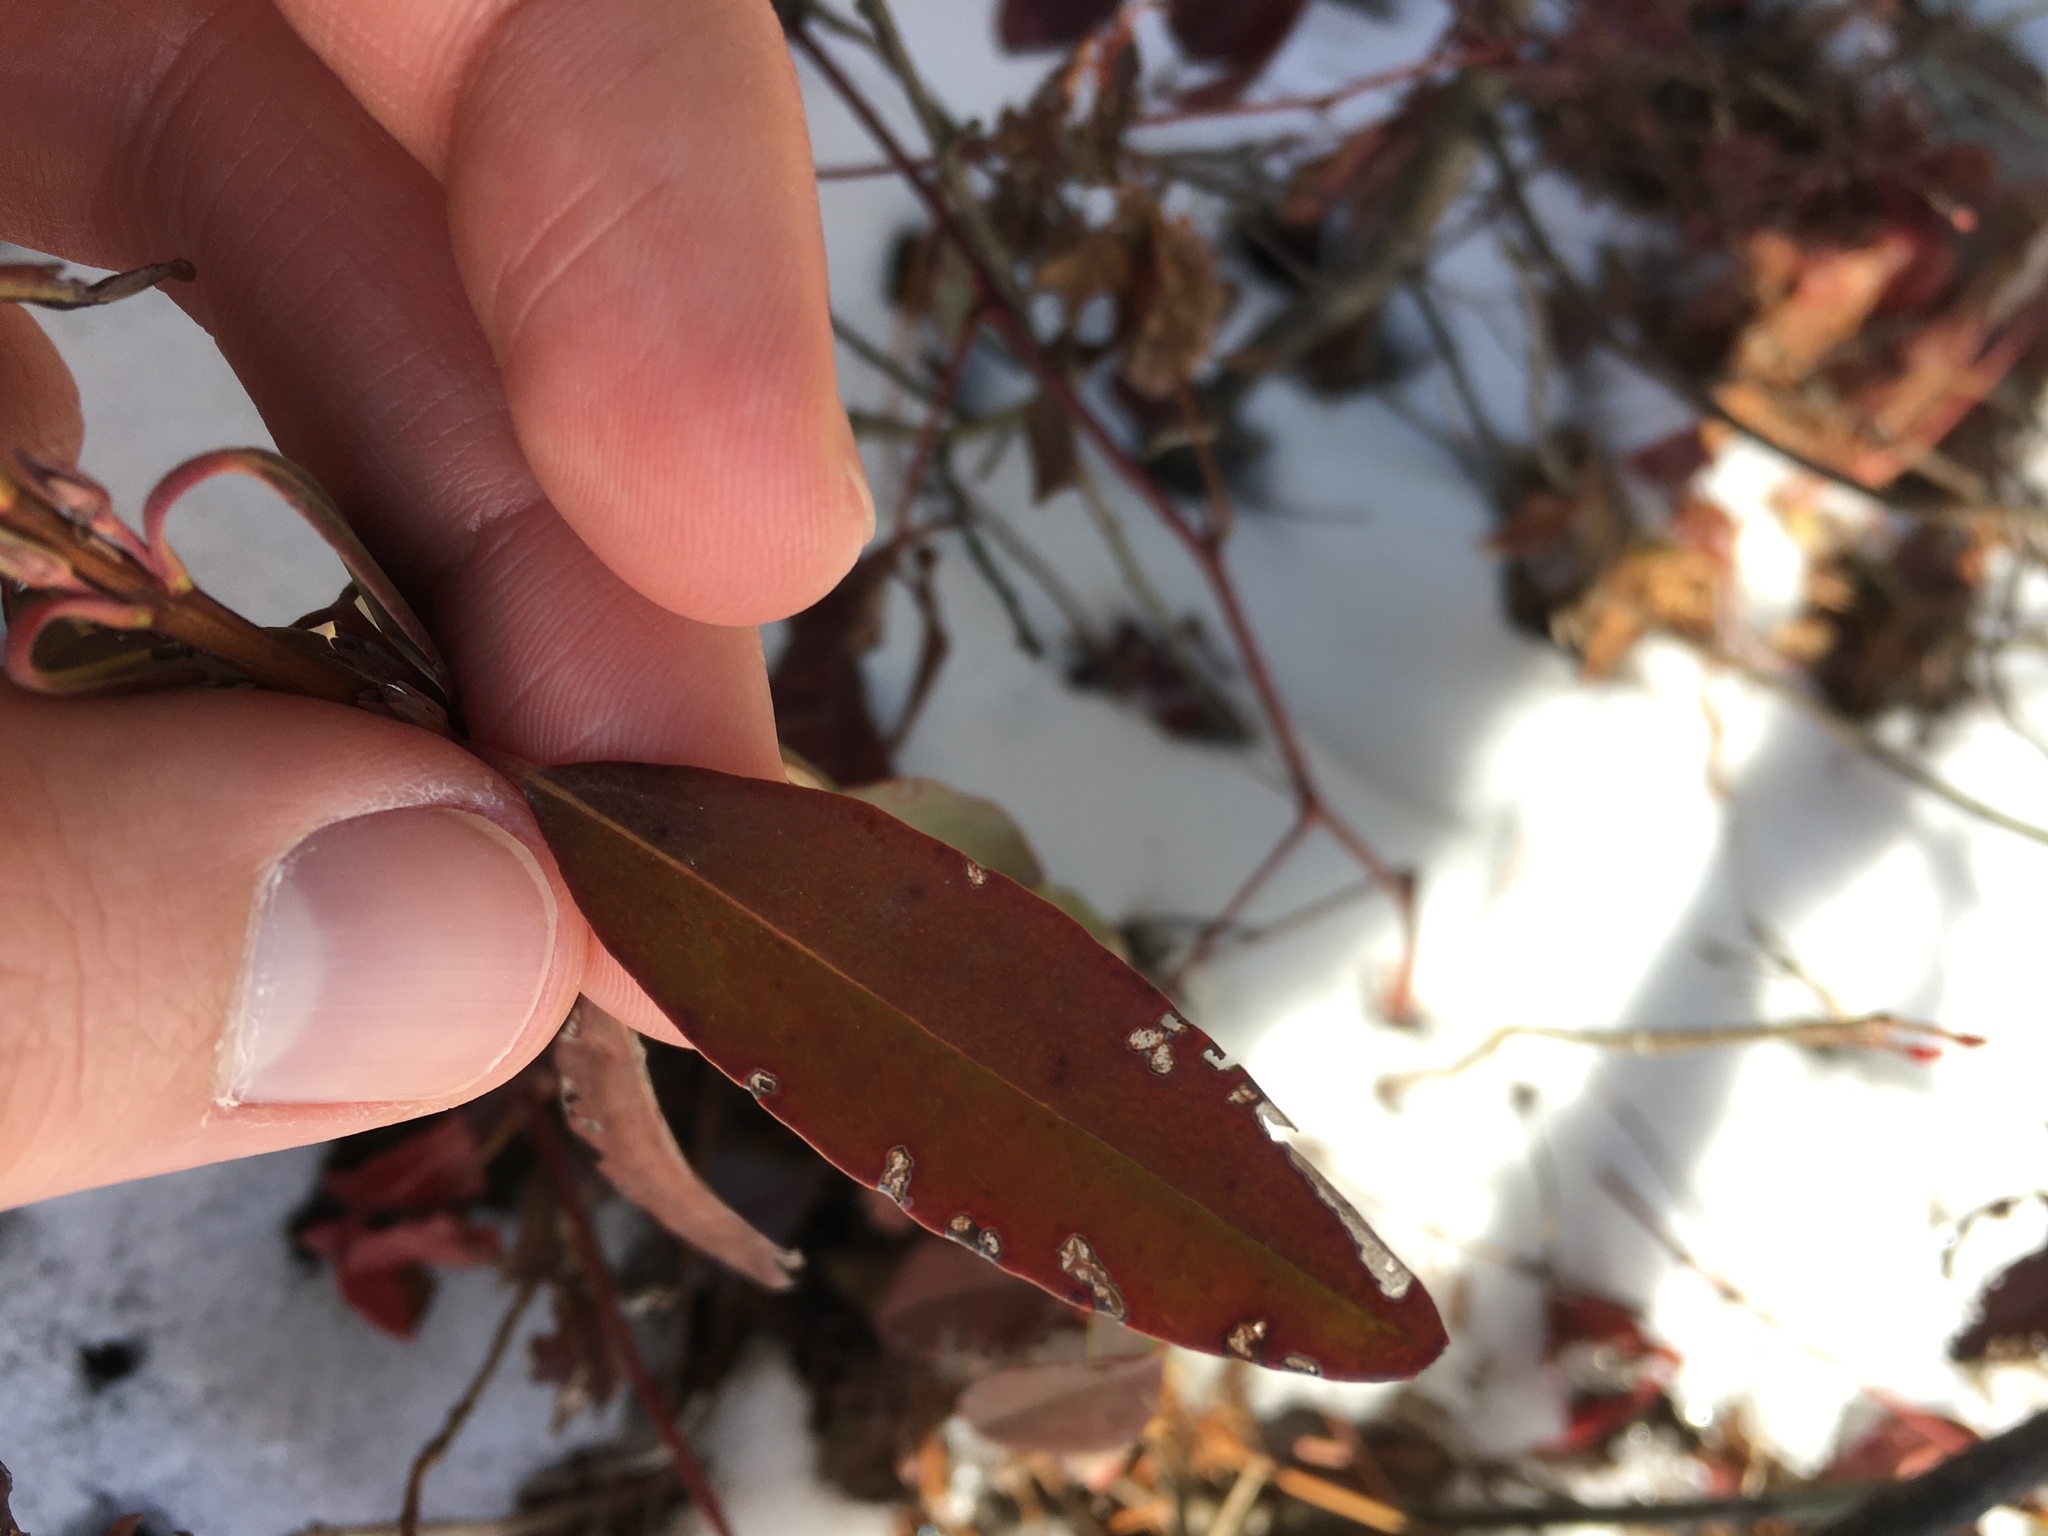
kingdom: Plantae
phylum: Tracheophyta
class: Magnoliopsida
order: Ericales
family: Ericaceae
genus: Kalmia
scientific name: Kalmia angustifolia
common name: Sheep-laurel
